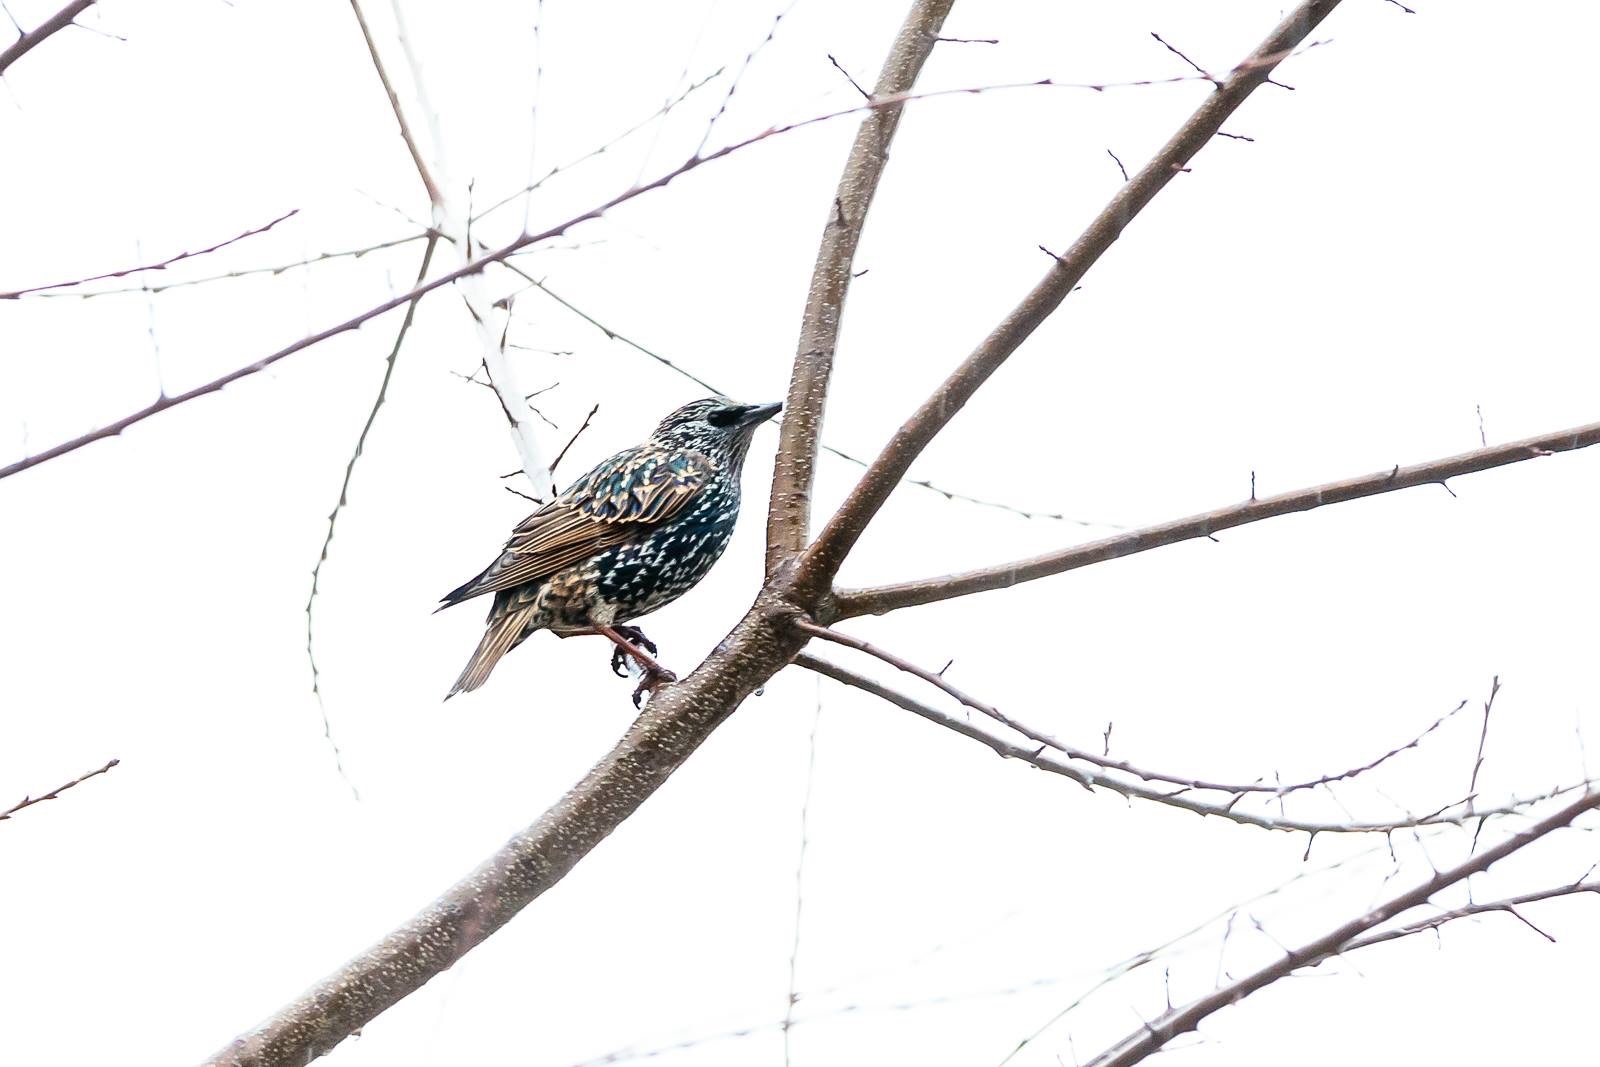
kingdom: Animalia
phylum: Chordata
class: Aves
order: Passeriformes
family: Sturnidae
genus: Sturnus
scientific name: Sturnus vulgaris
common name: Common starling
